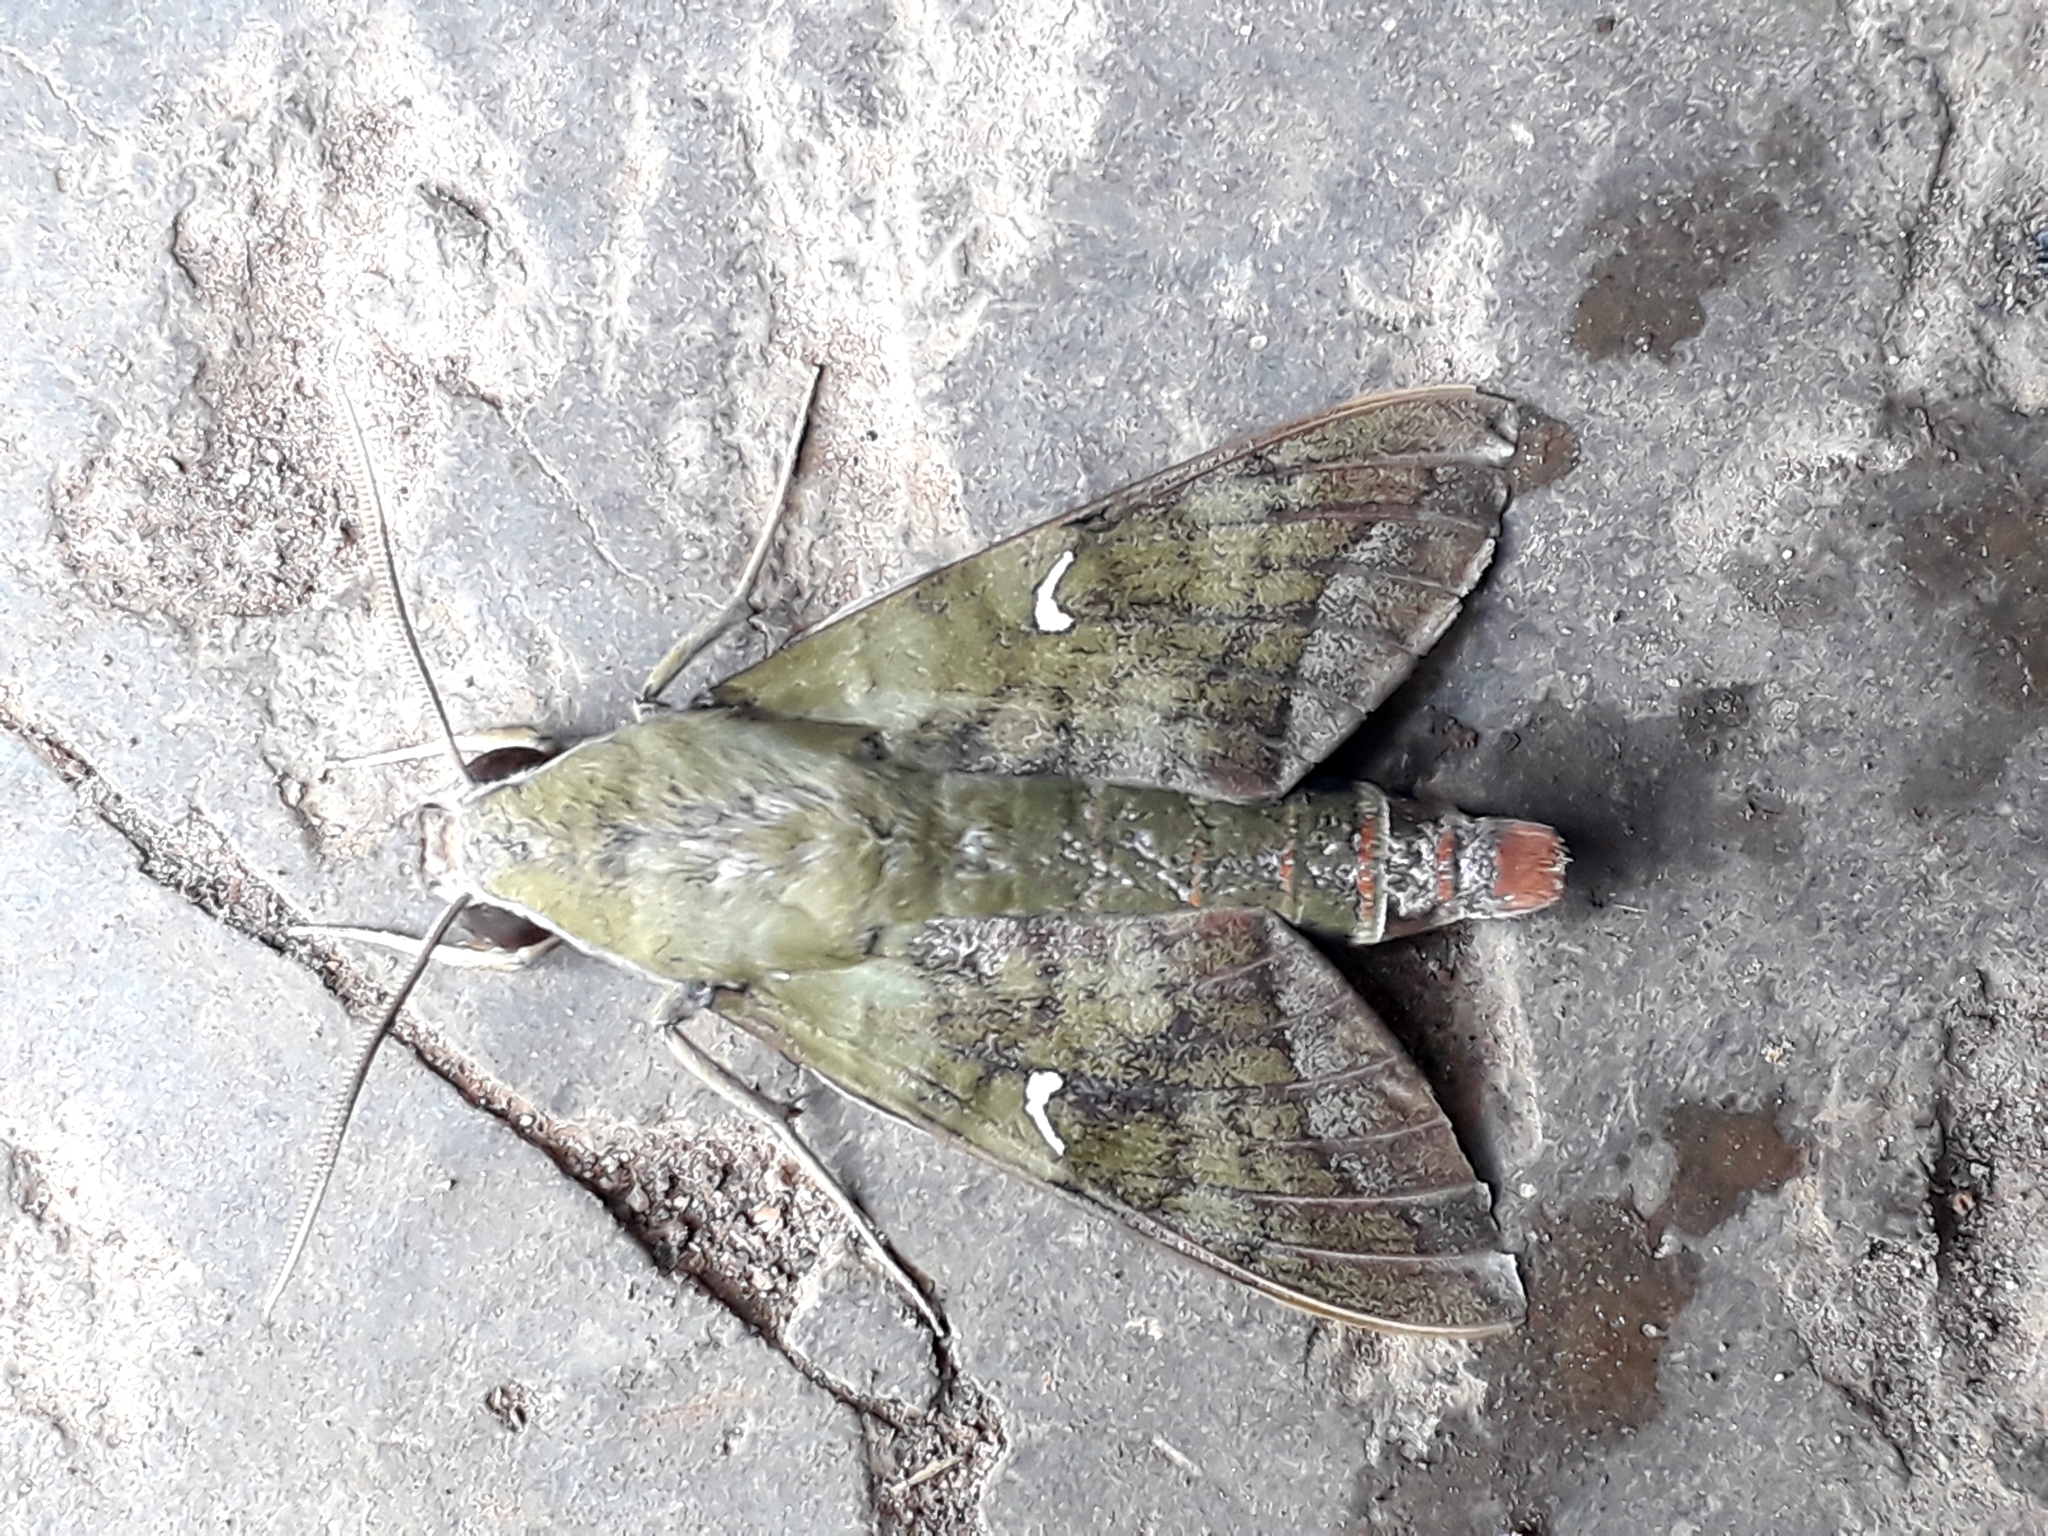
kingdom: Animalia
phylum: Arthropoda
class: Insecta
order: Lepidoptera
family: Sphingidae
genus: Nephele
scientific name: Nephele comma
